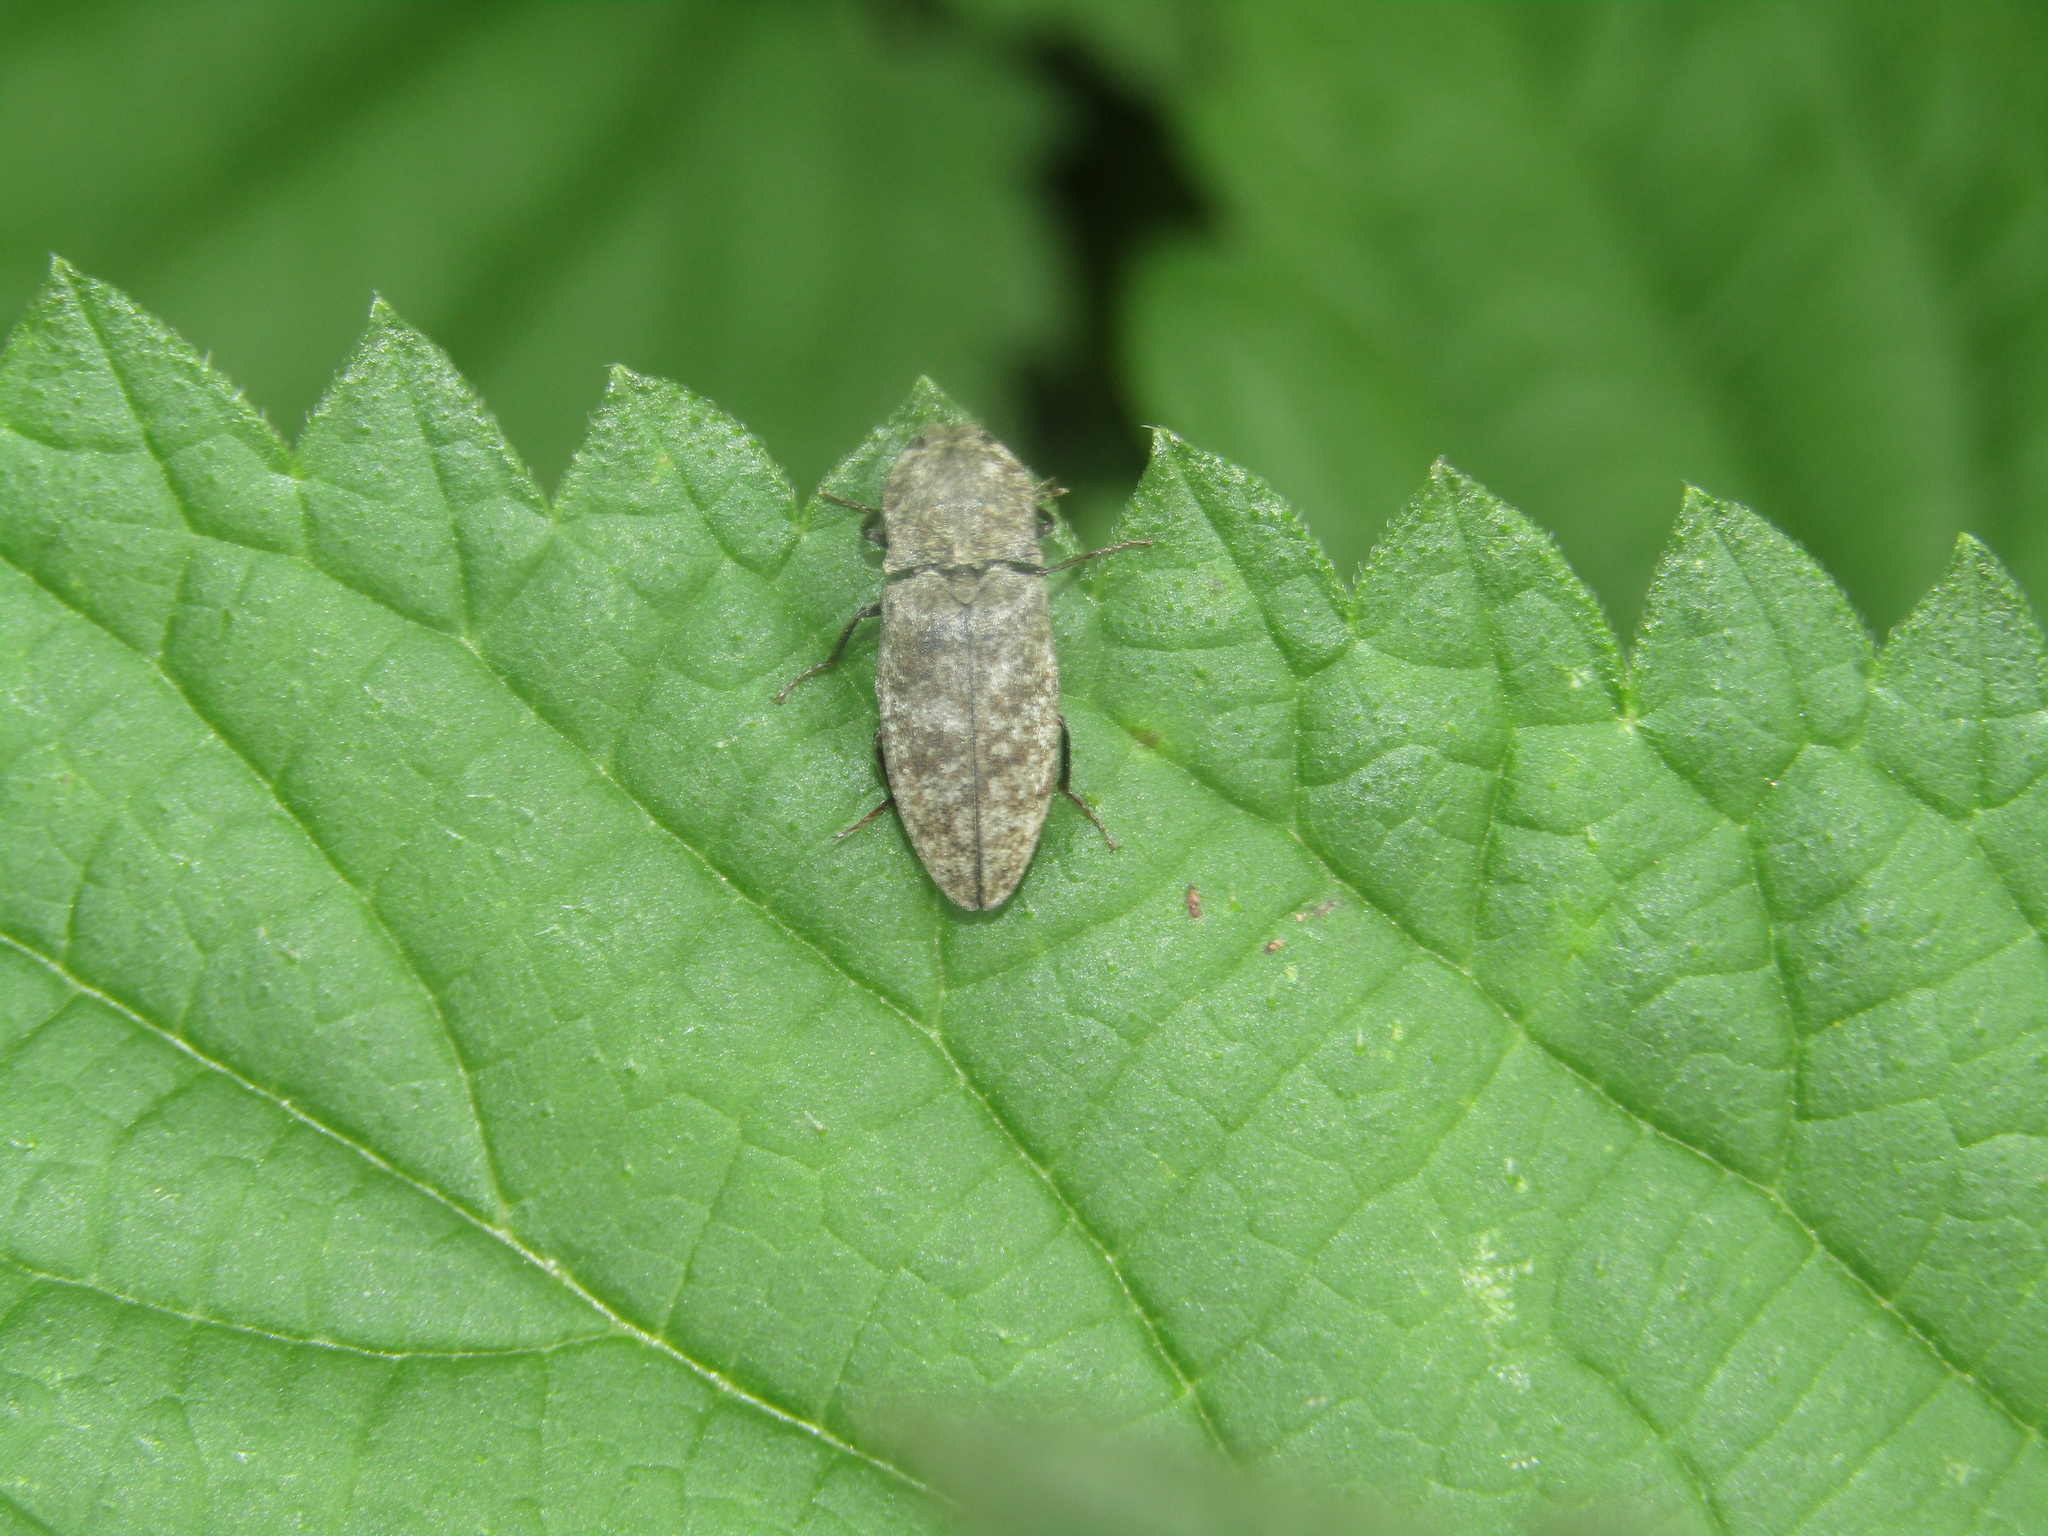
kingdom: Animalia
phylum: Arthropoda
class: Insecta
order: Coleoptera
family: Elateridae
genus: Agrypnus
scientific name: Agrypnus murinus
